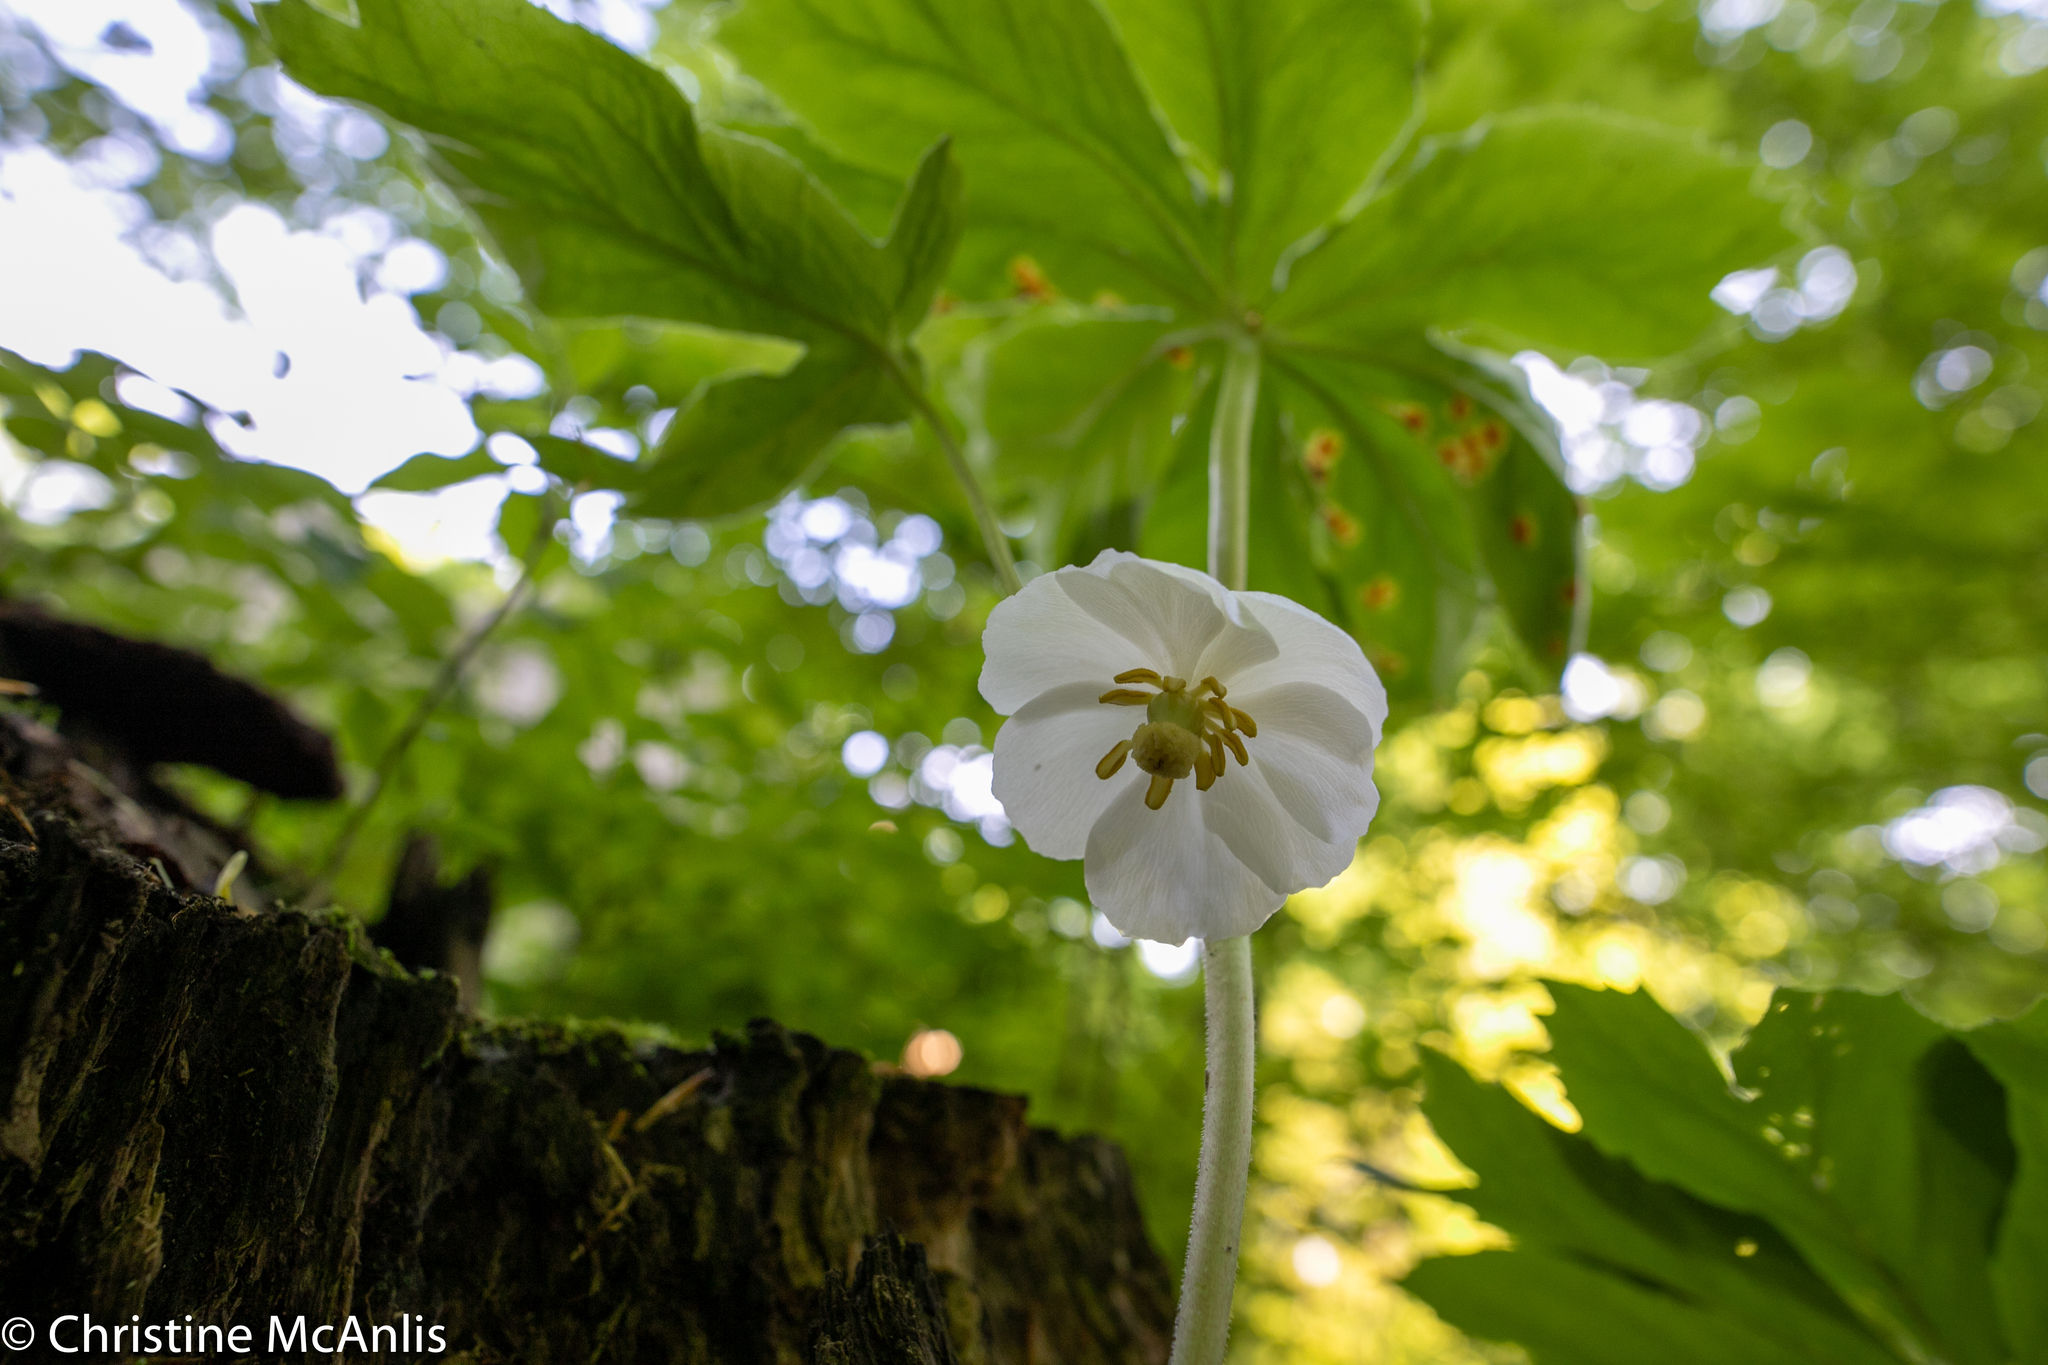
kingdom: Plantae
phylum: Tracheophyta
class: Magnoliopsida
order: Ranunculales
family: Berberidaceae
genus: Podophyllum
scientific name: Podophyllum peltatum
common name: Wild mandrake
